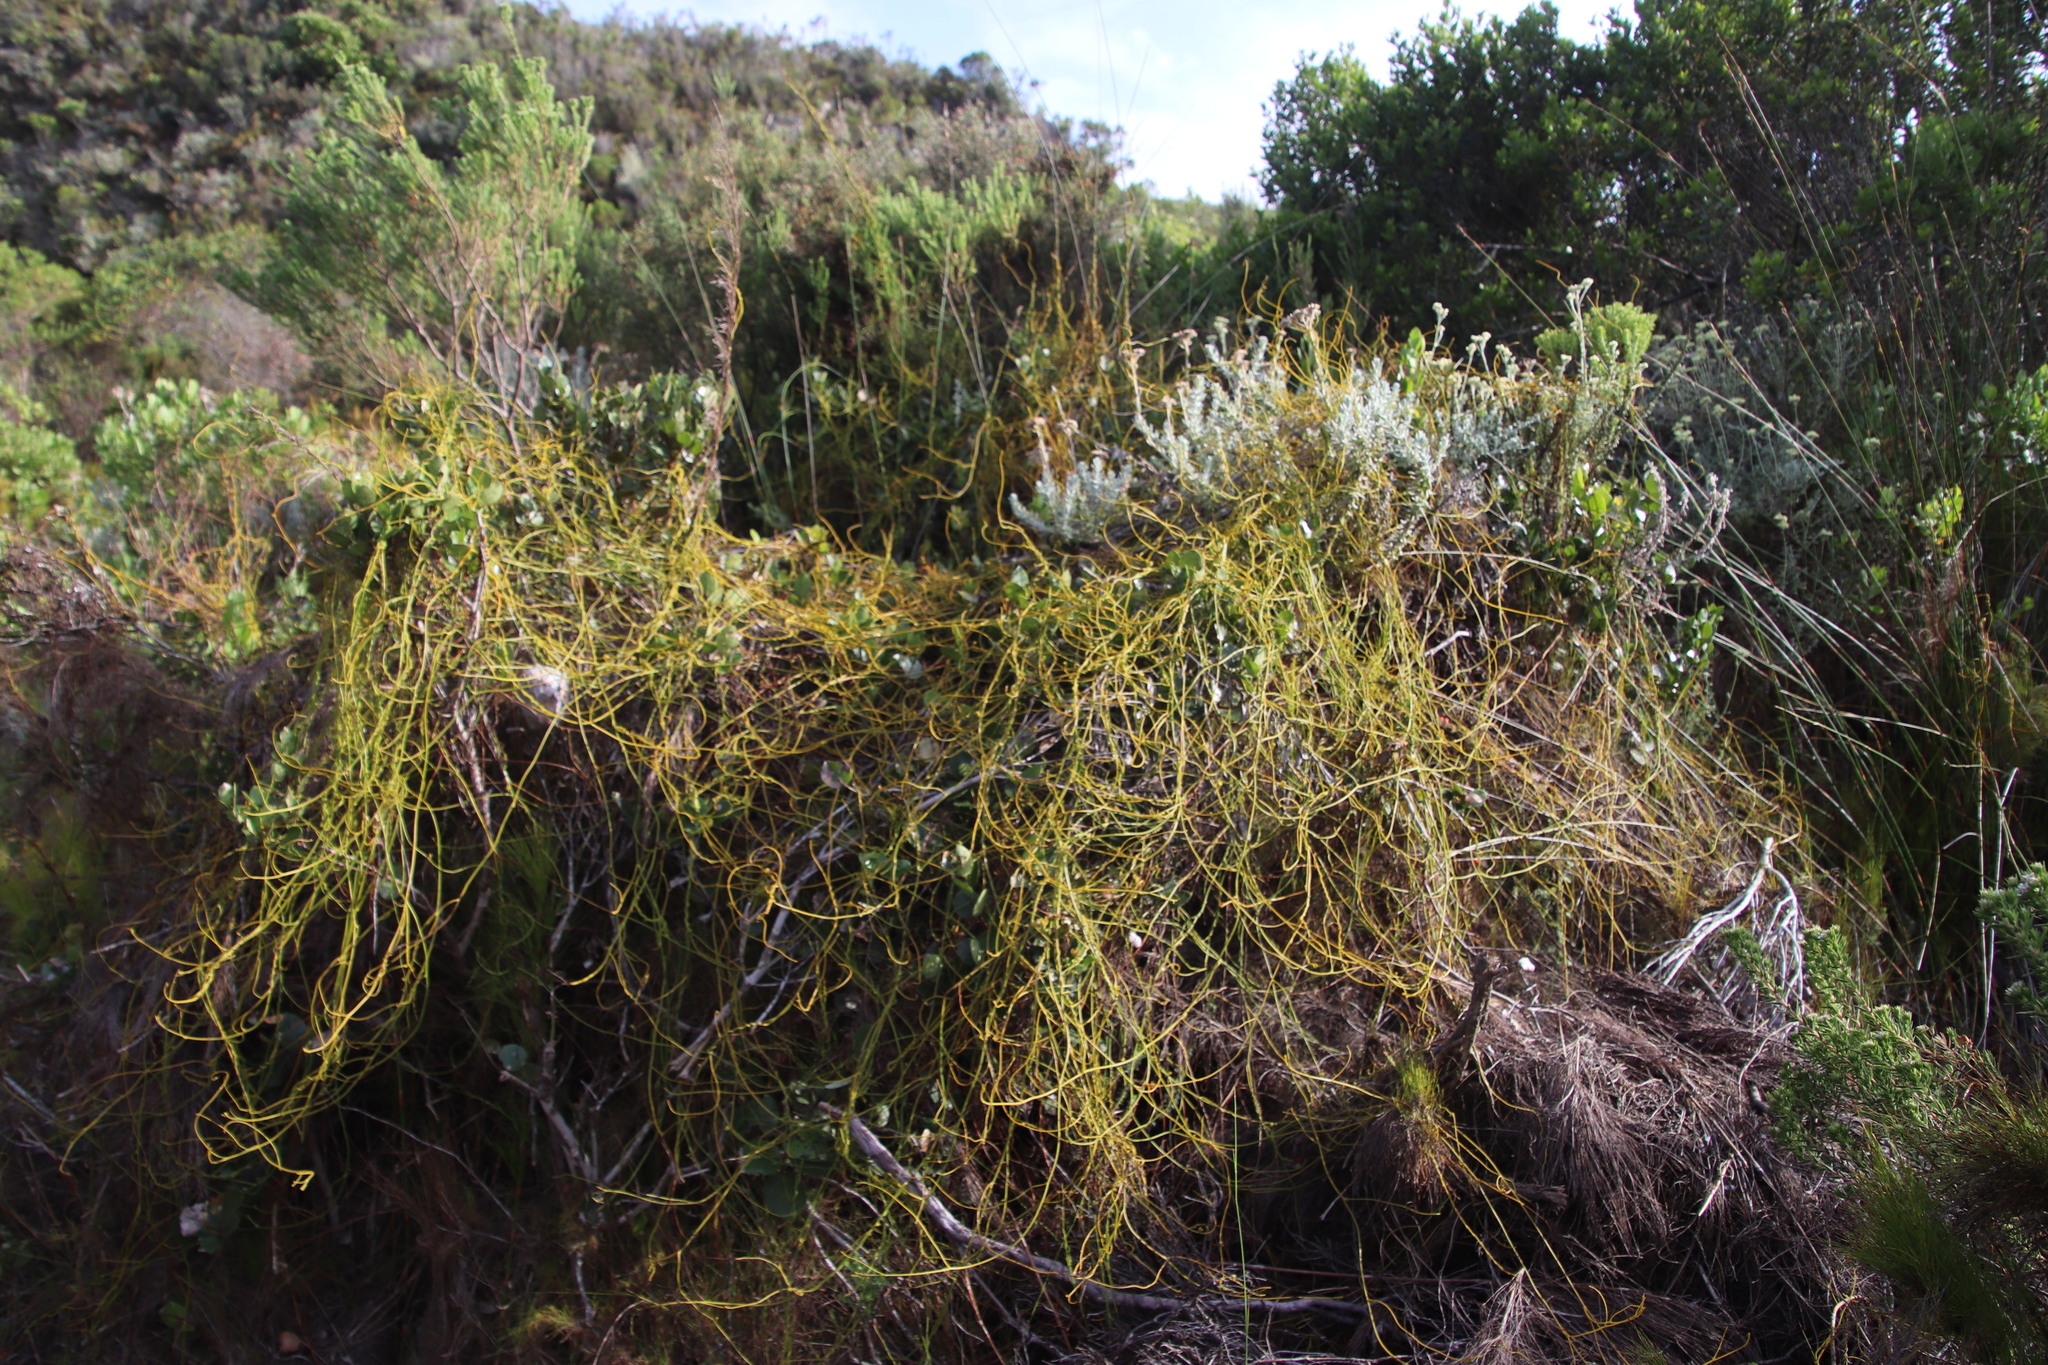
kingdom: Plantae
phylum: Tracheophyta
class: Magnoliopsida
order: Laurales
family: Lauraceae
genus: Cassytha
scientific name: Cassytha ciliolata
